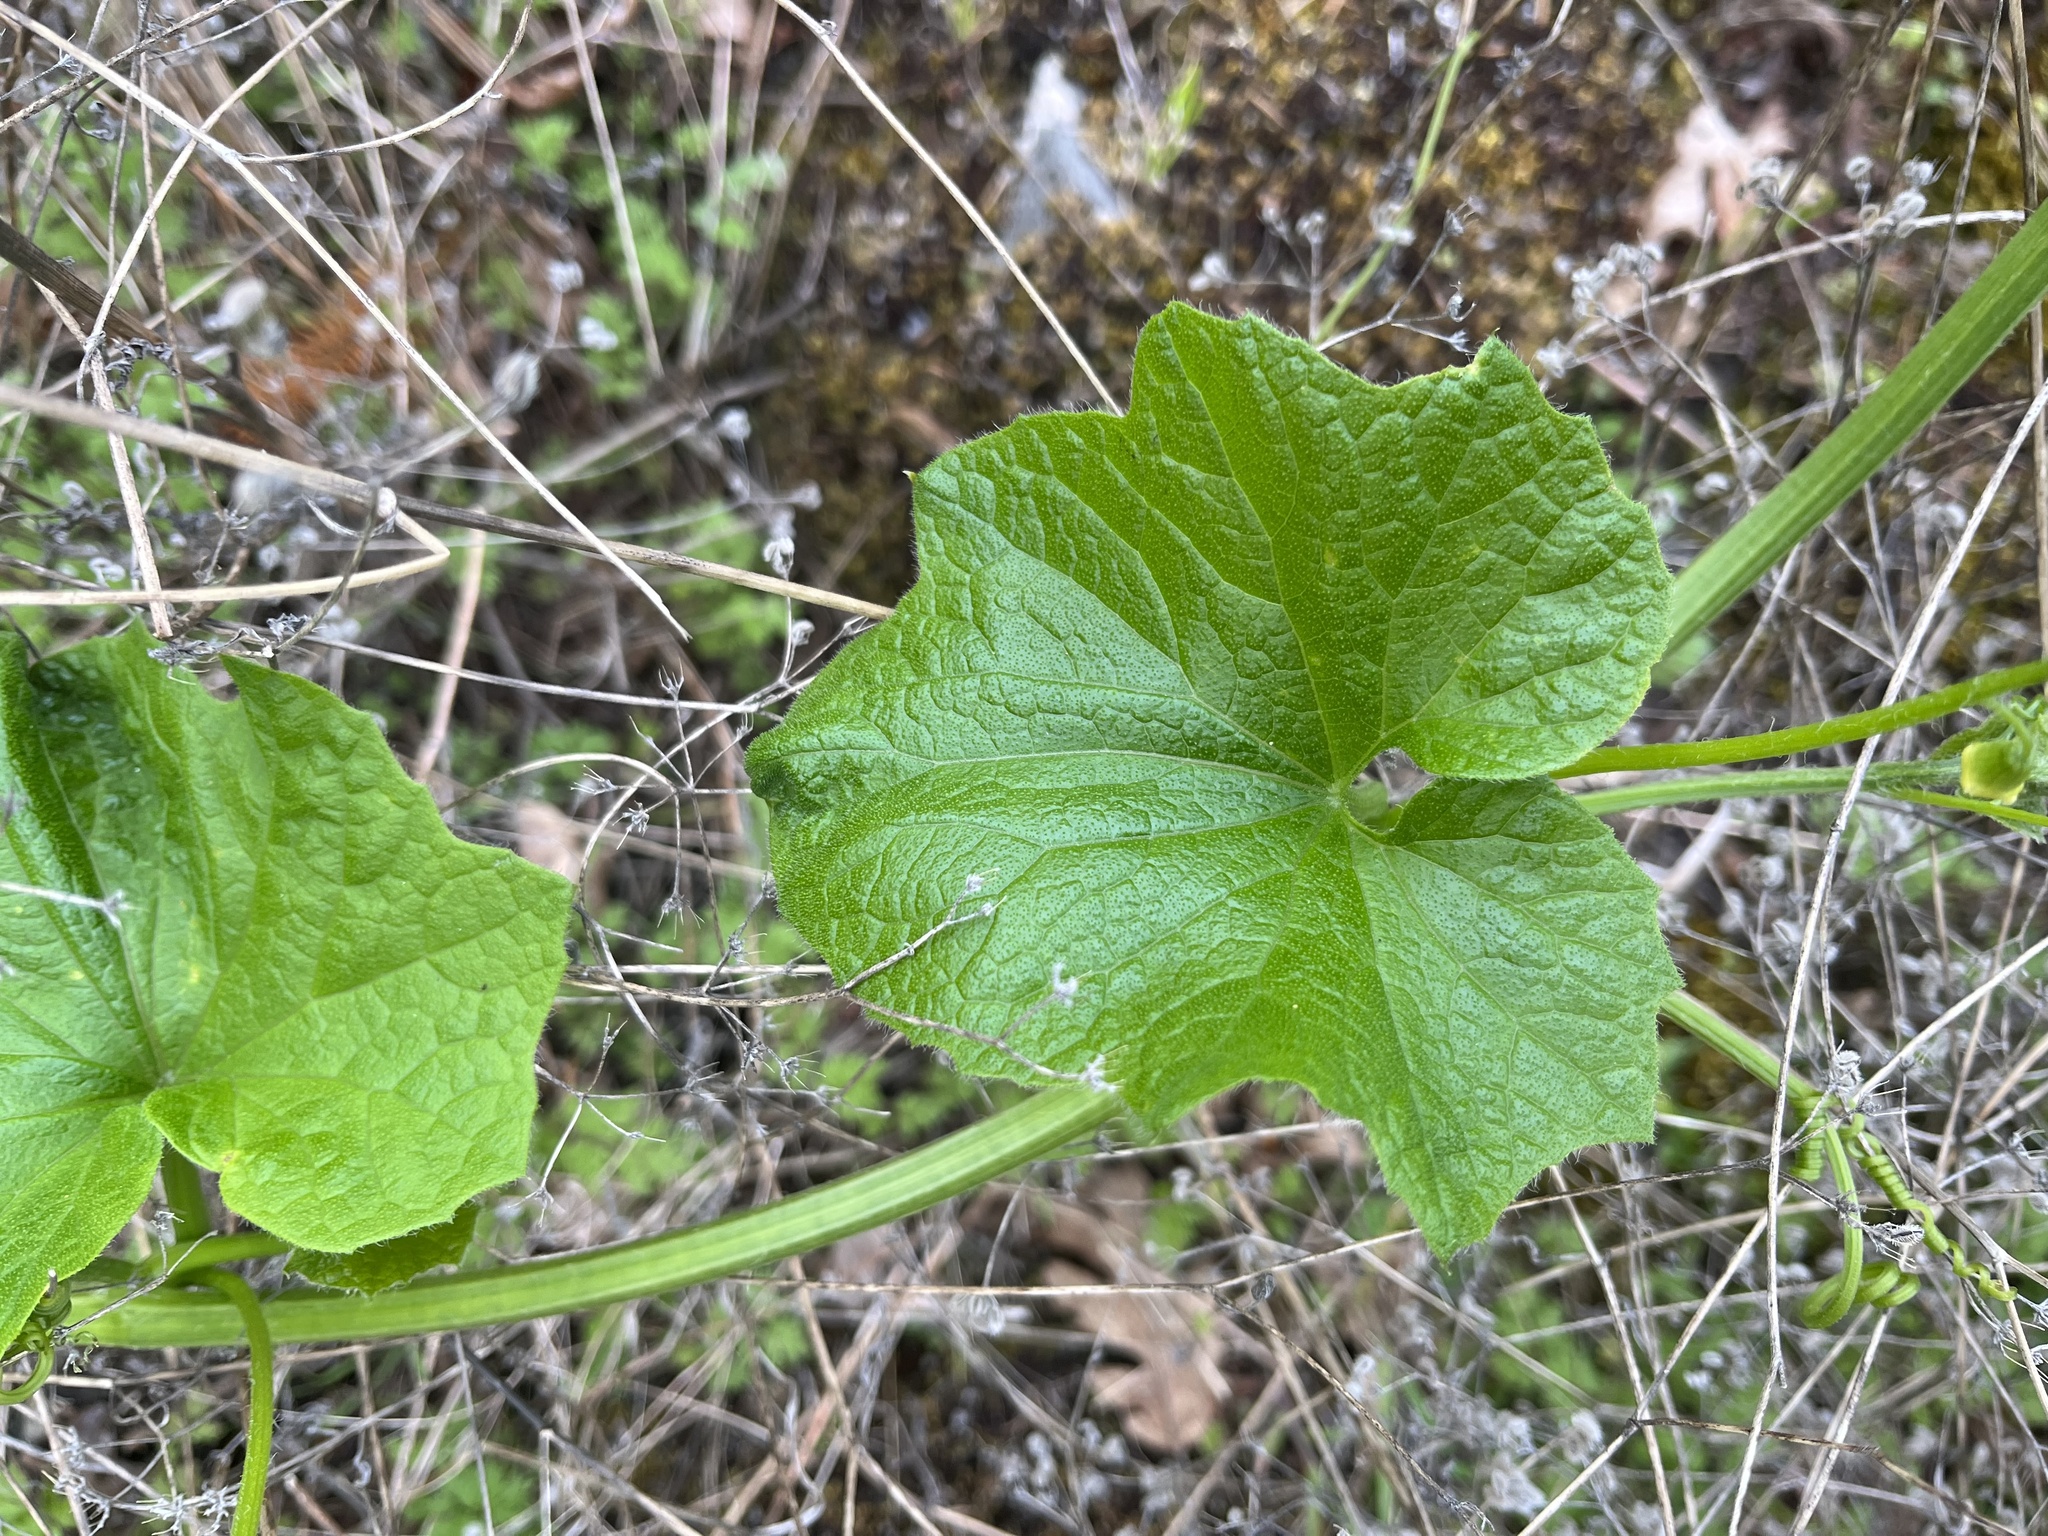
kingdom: Plantae
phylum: Tracheophyta
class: Magnoliopsida
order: Cucurbitales
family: Cucurbitaceae
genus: Marah
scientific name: Marah oregana
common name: Coastal manroot
